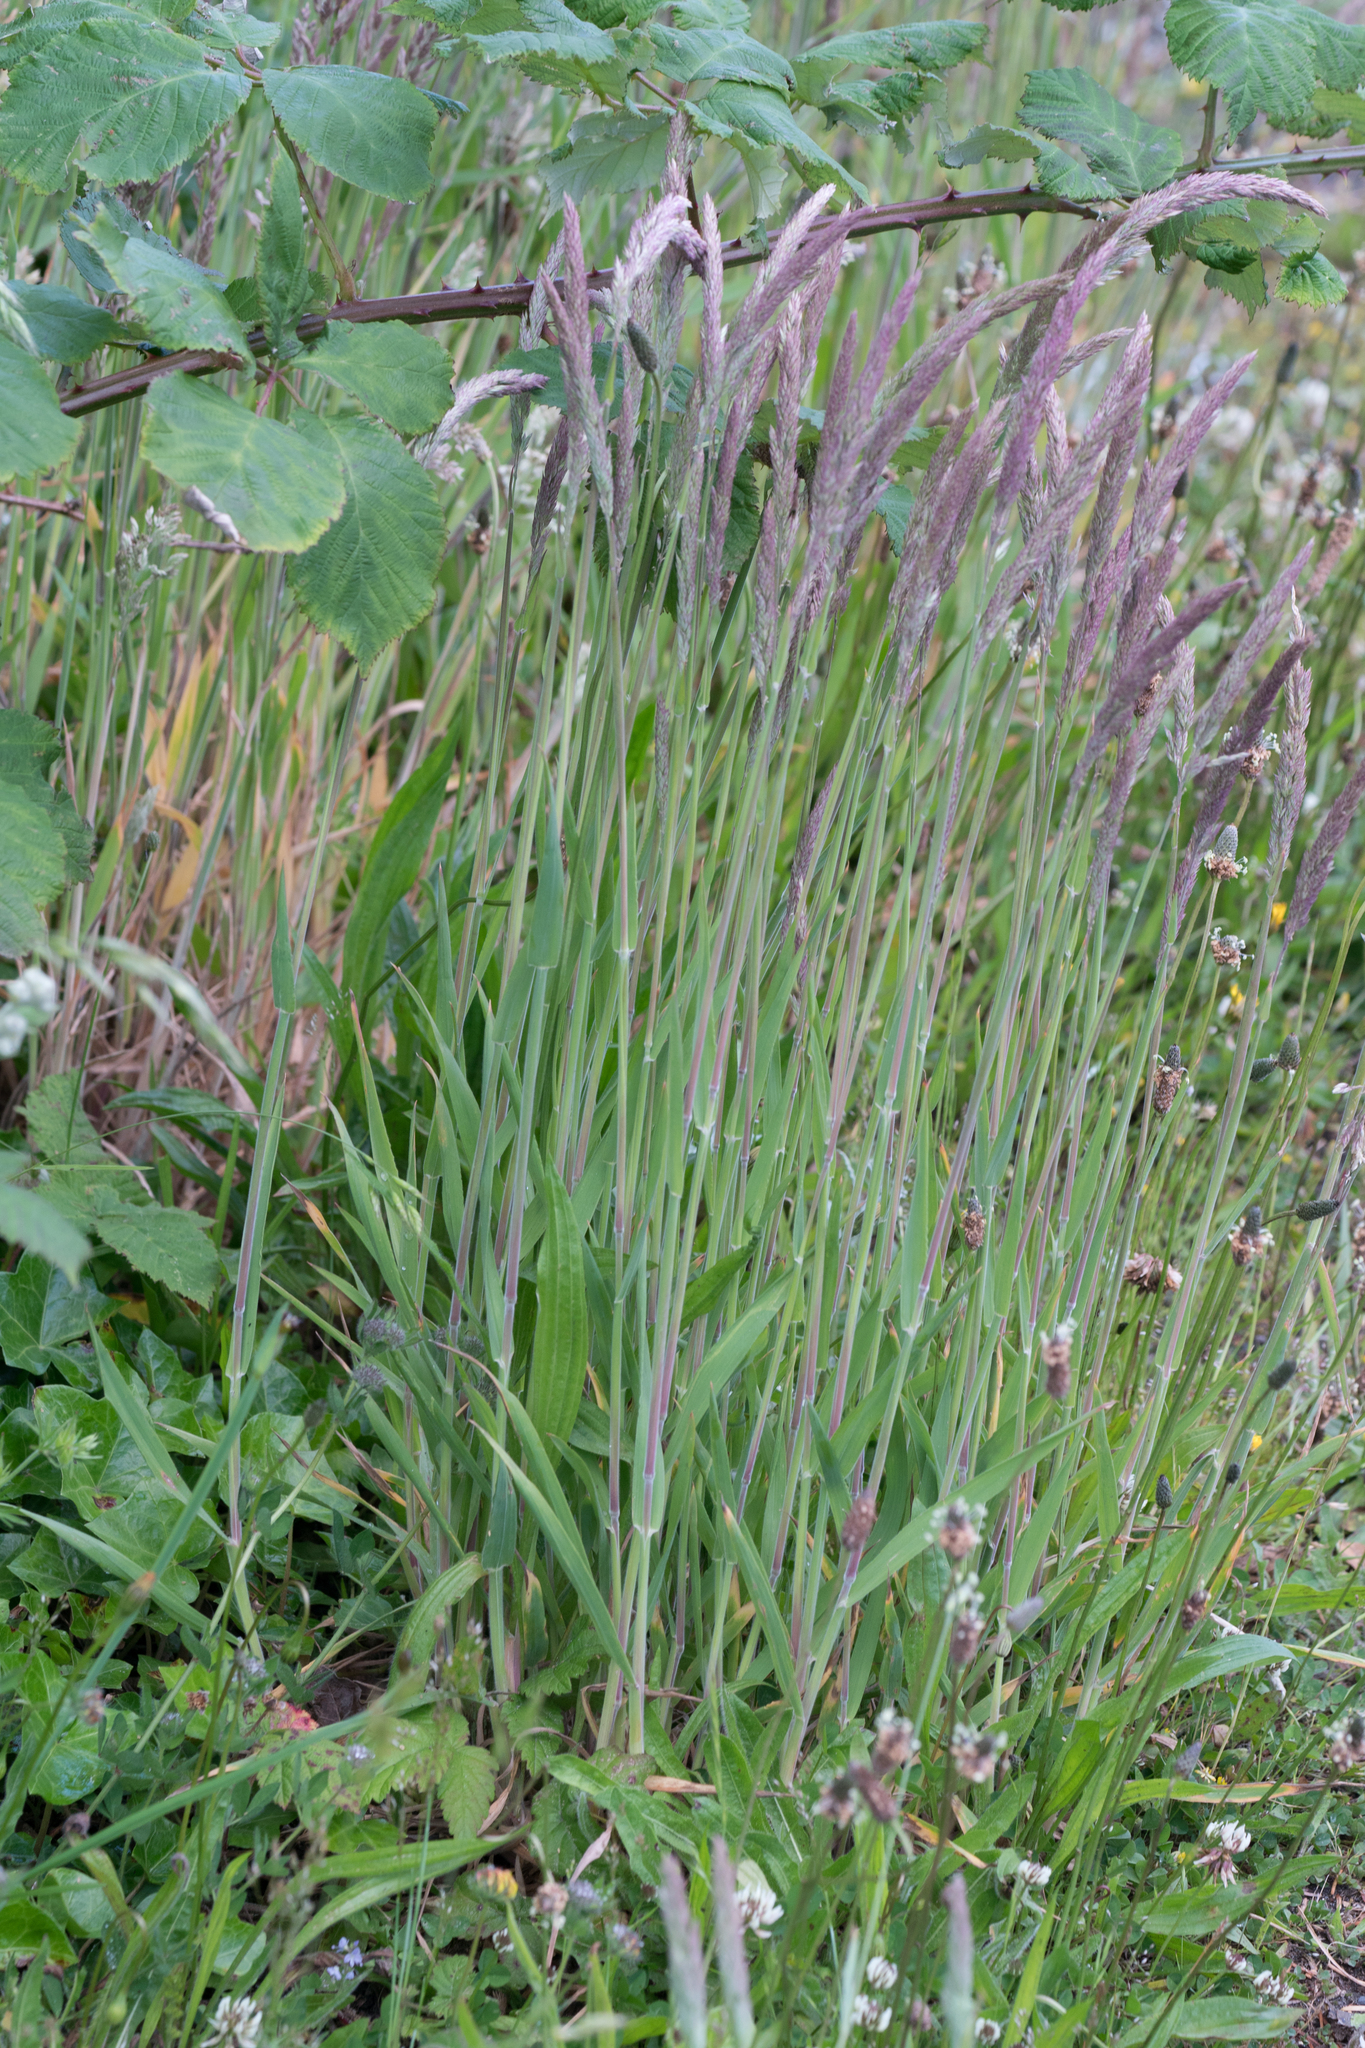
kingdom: Plantae
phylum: Tracheophyta
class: Liliopsida
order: Poales
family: Poaceae
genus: Holcus
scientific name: Holcus lanatus
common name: Yorkshire-fog
